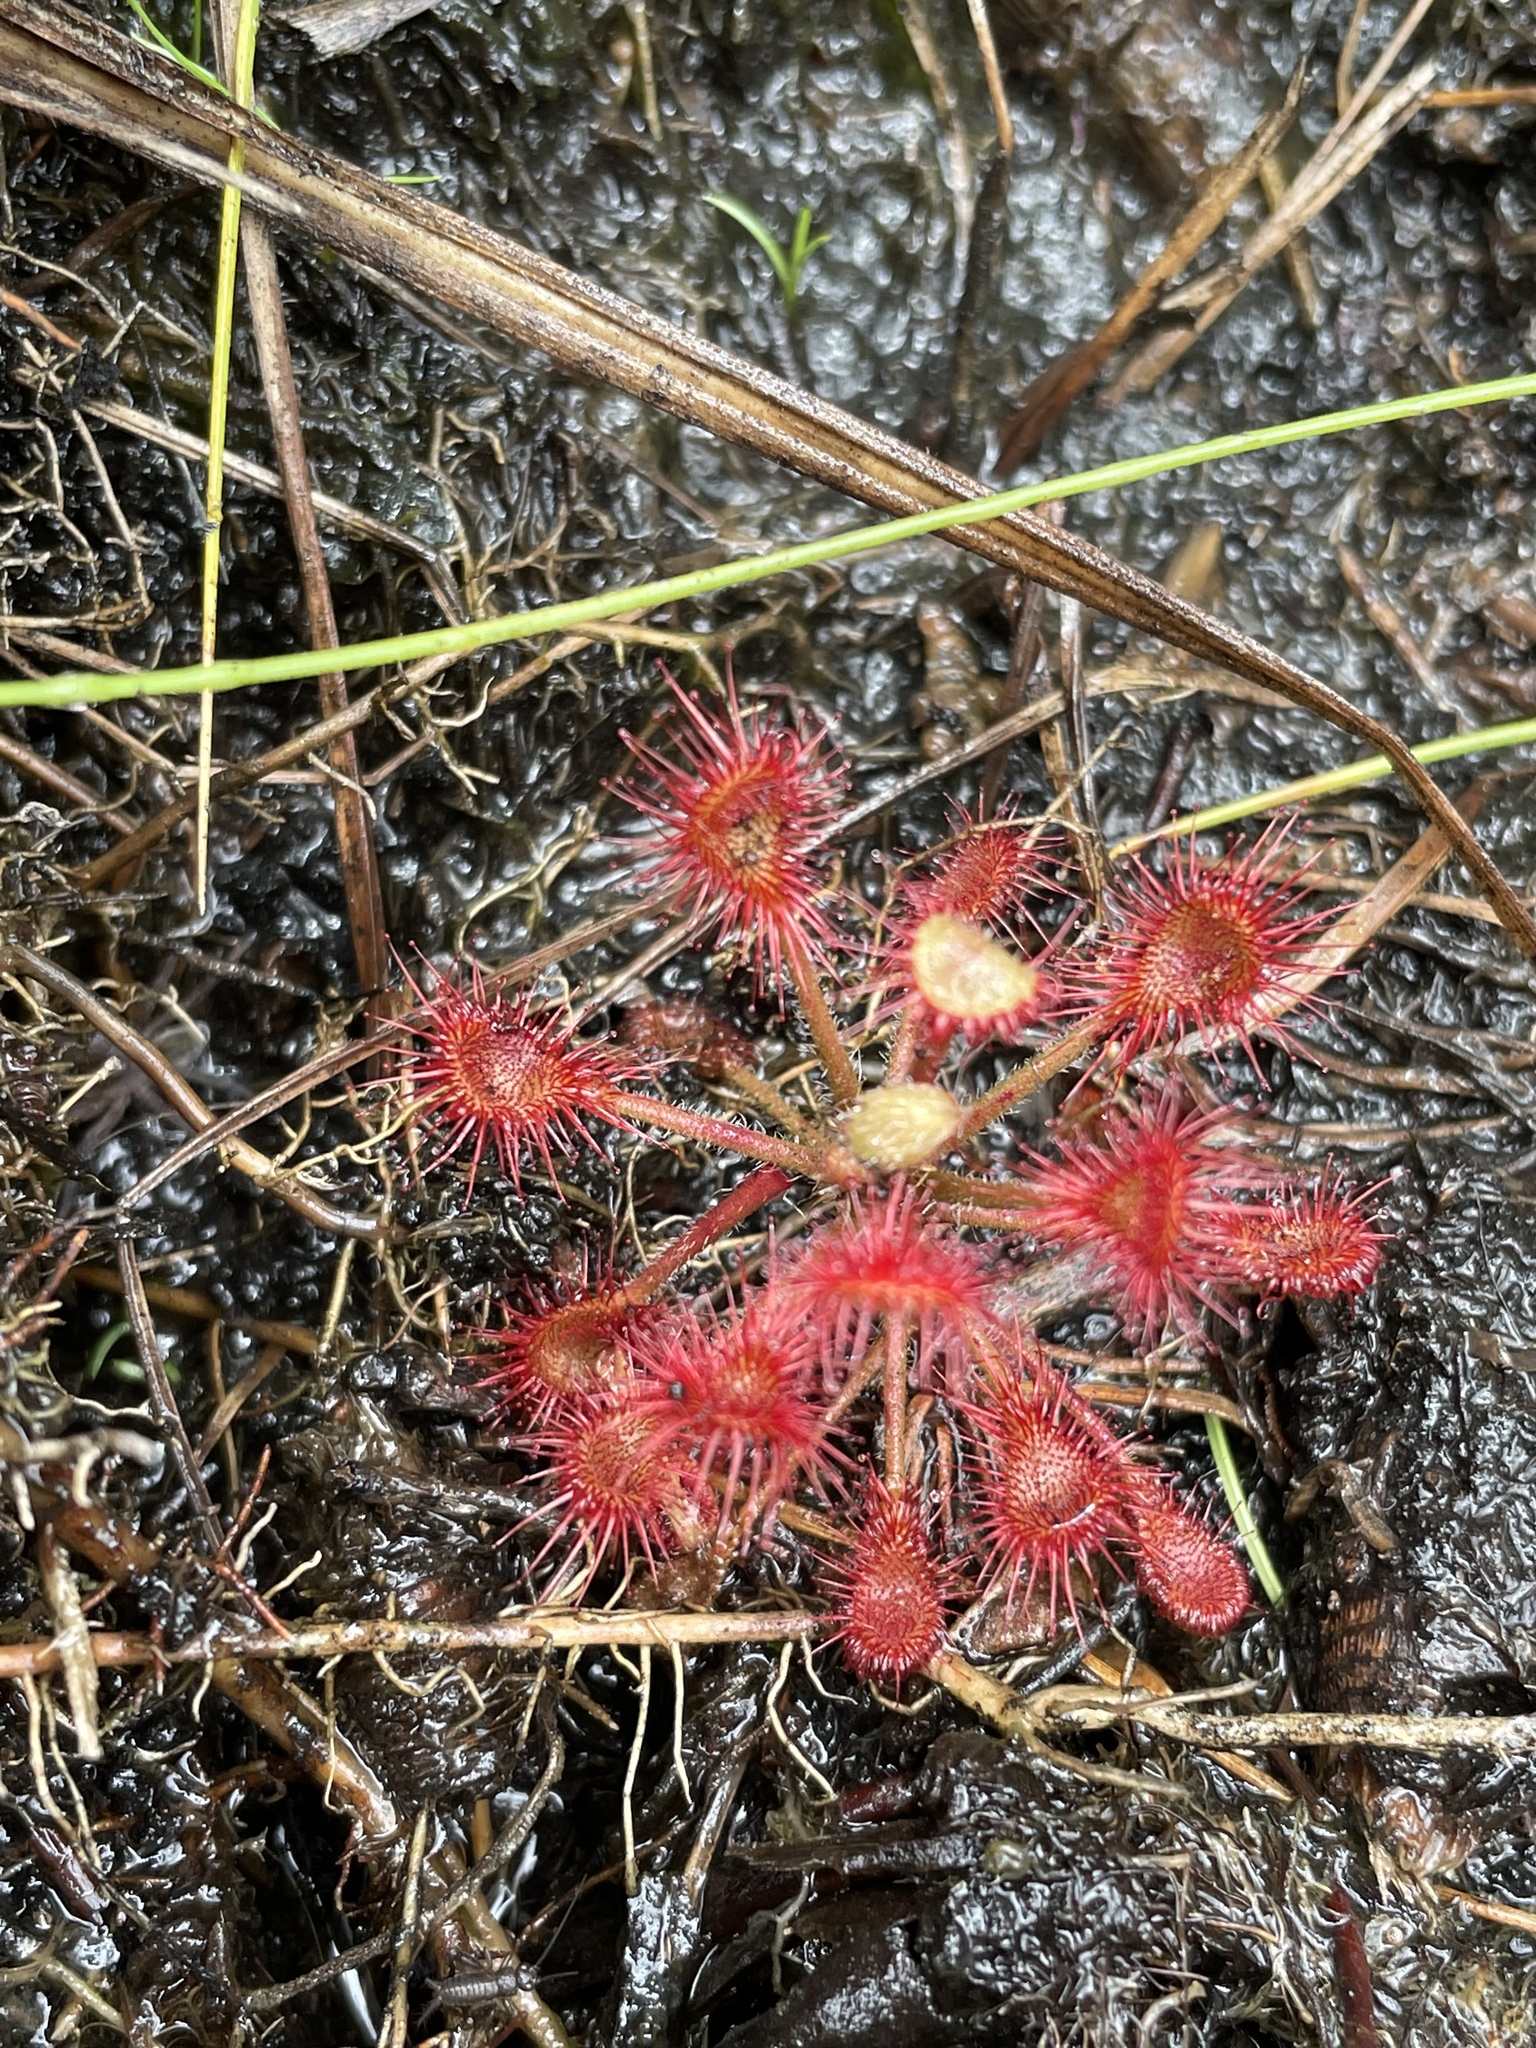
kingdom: Plantae
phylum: Tracheophyta
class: Magnoliopsida
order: Caryophyllales
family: Droseraceae
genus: Drosera
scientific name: Drosera madagascariensis
